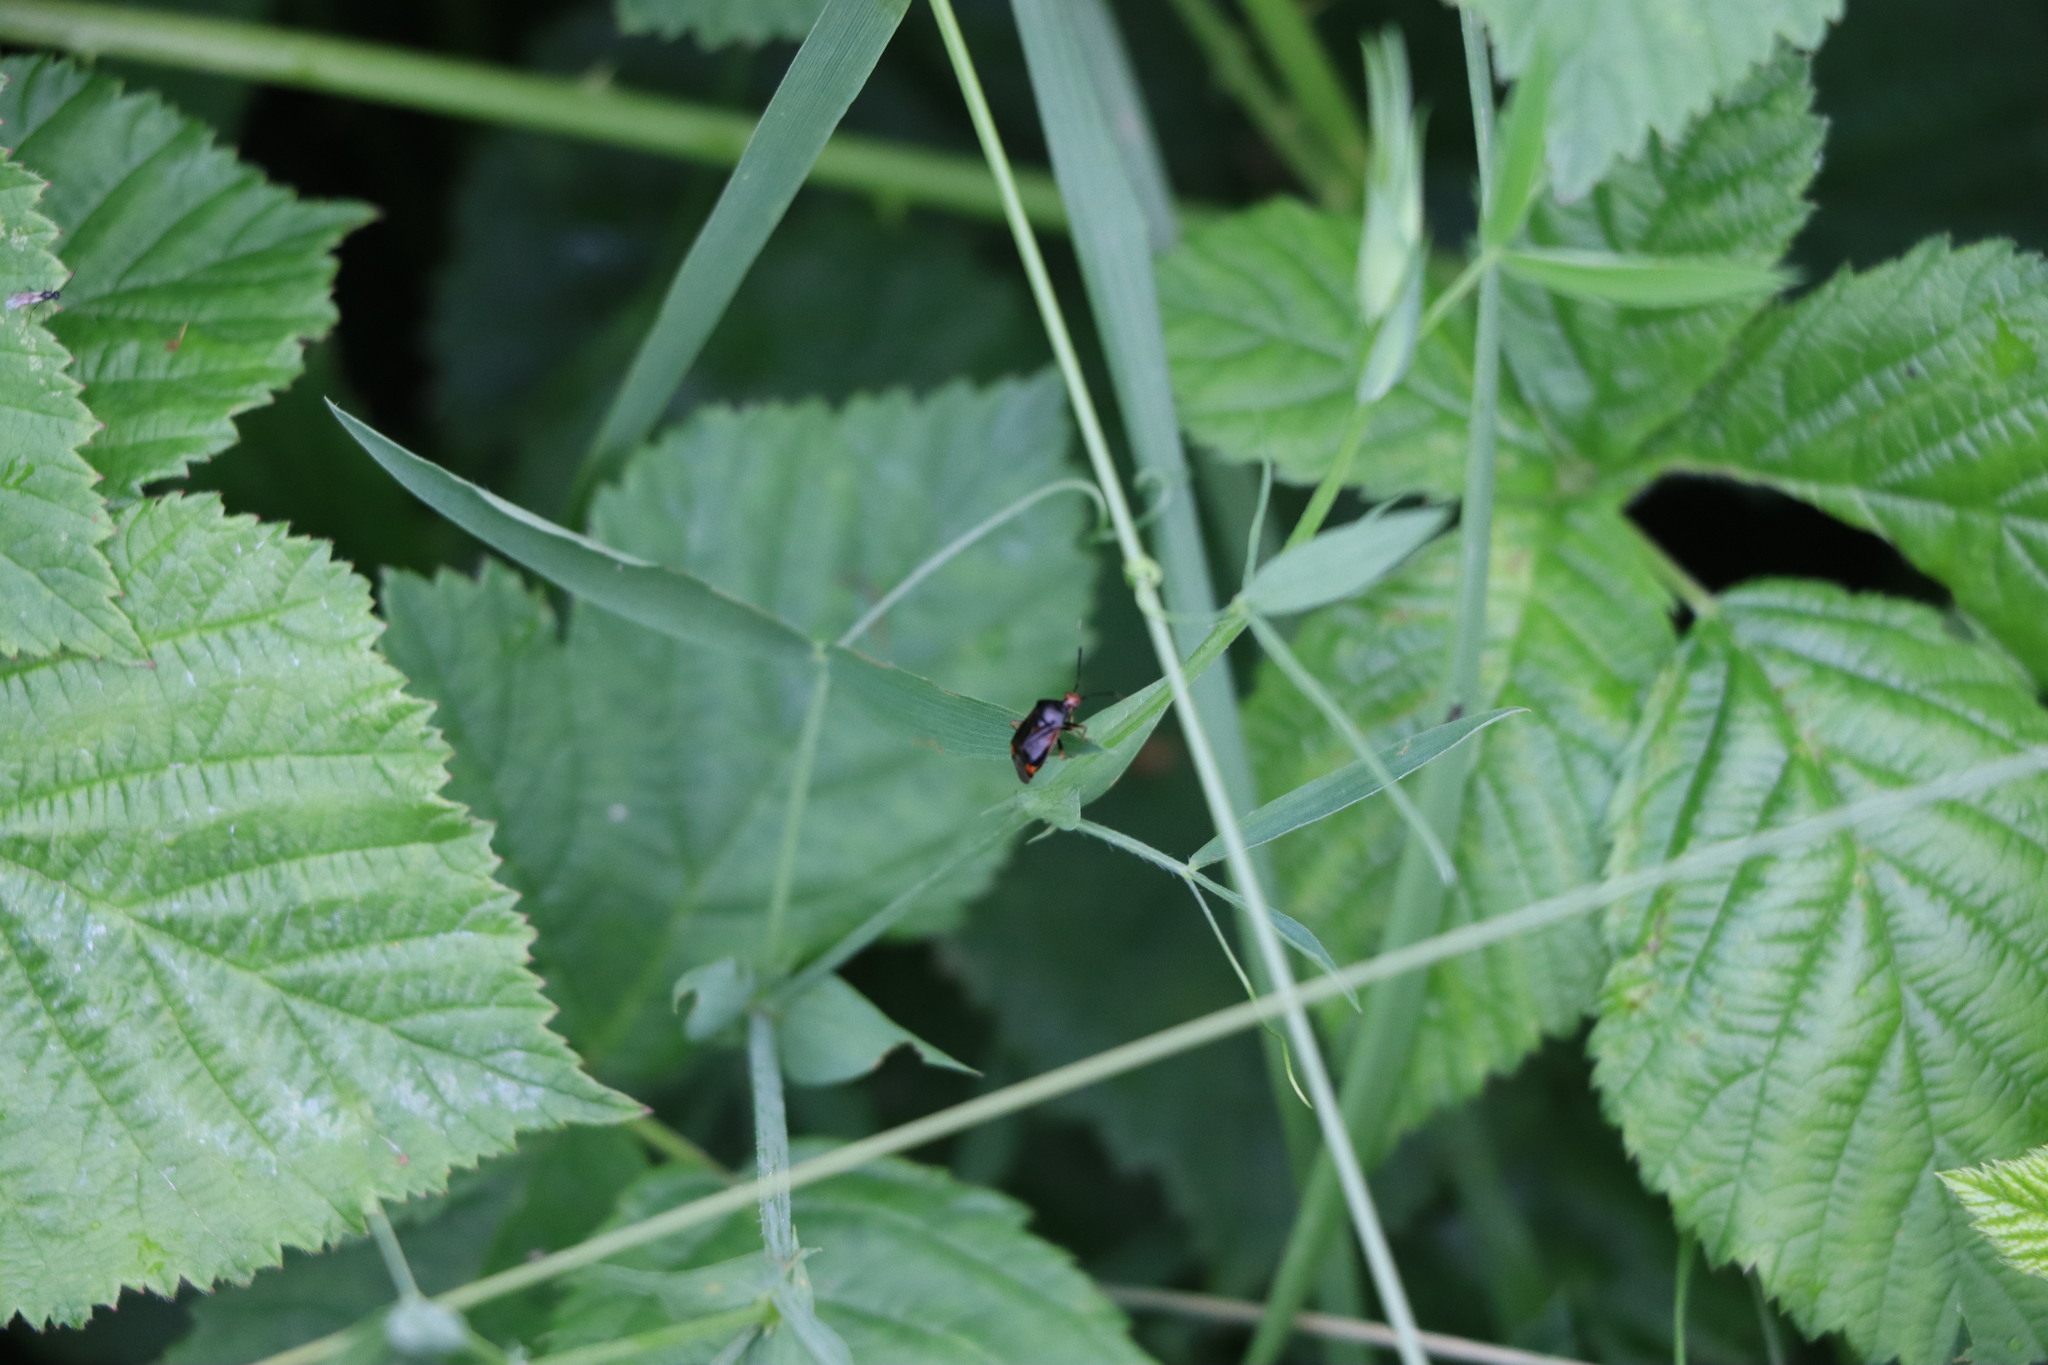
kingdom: Animalia
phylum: Arthropoda
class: Insecta
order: Hemiptera
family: Miridae
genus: Deraeocoris
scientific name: Deraeocoris ruber
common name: Plant bug
